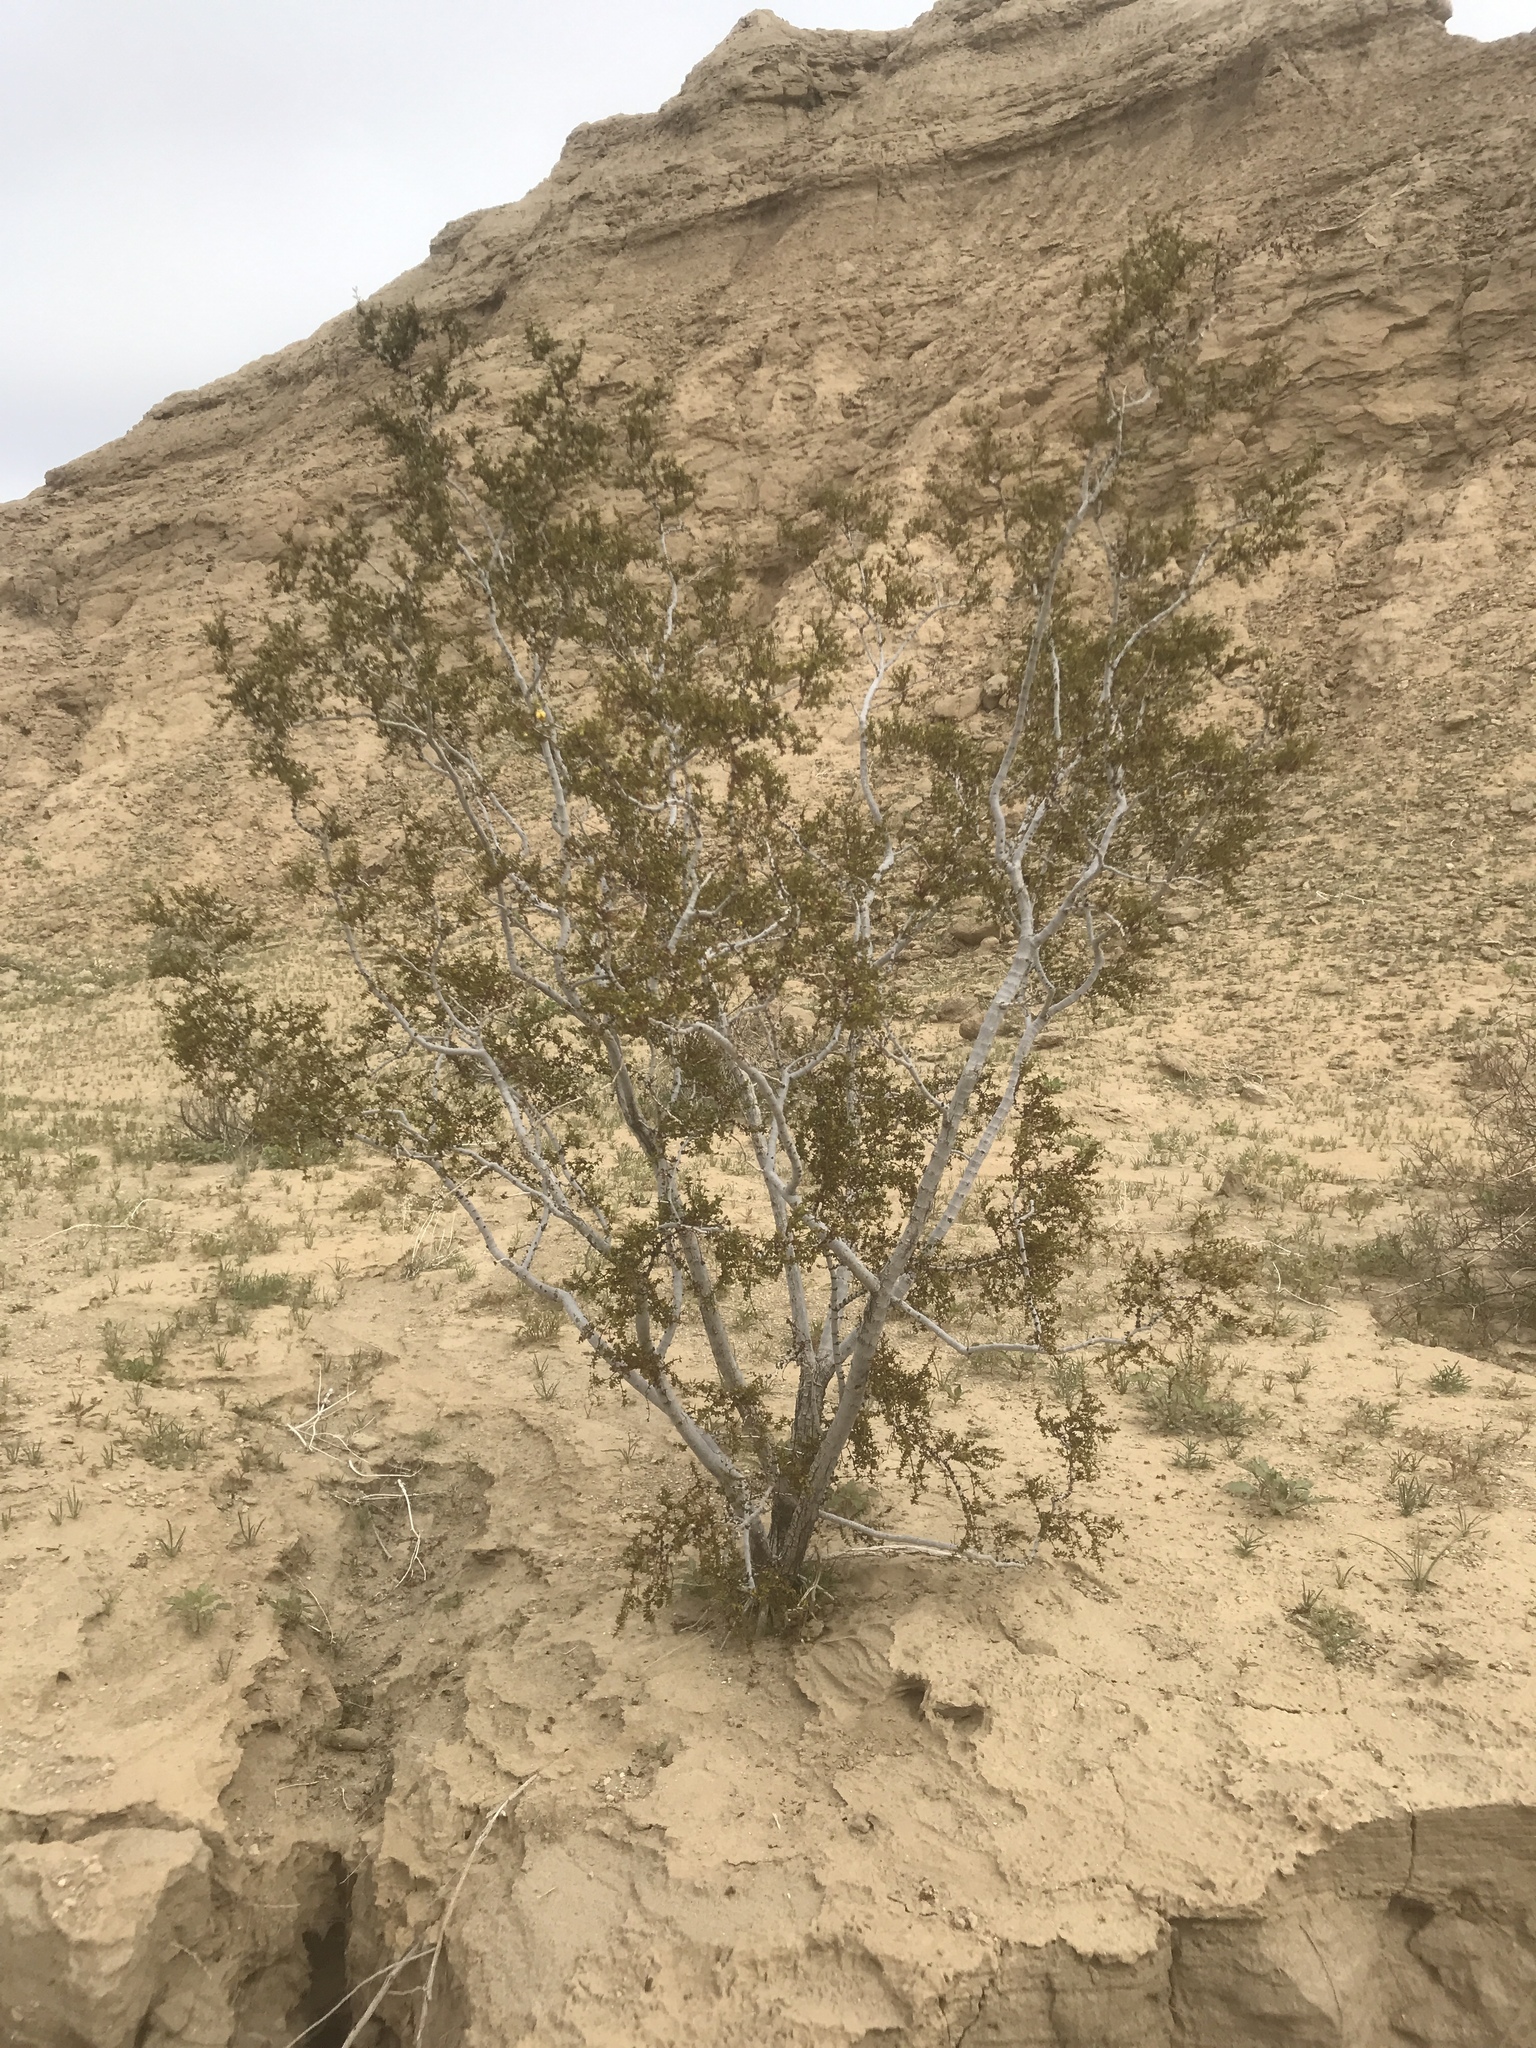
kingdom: Plantae
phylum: Tracheophyta
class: Magnoliopsida
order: Zygophyllales
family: Zygophyllaceae
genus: Larrea
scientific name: Larrea tridentata
